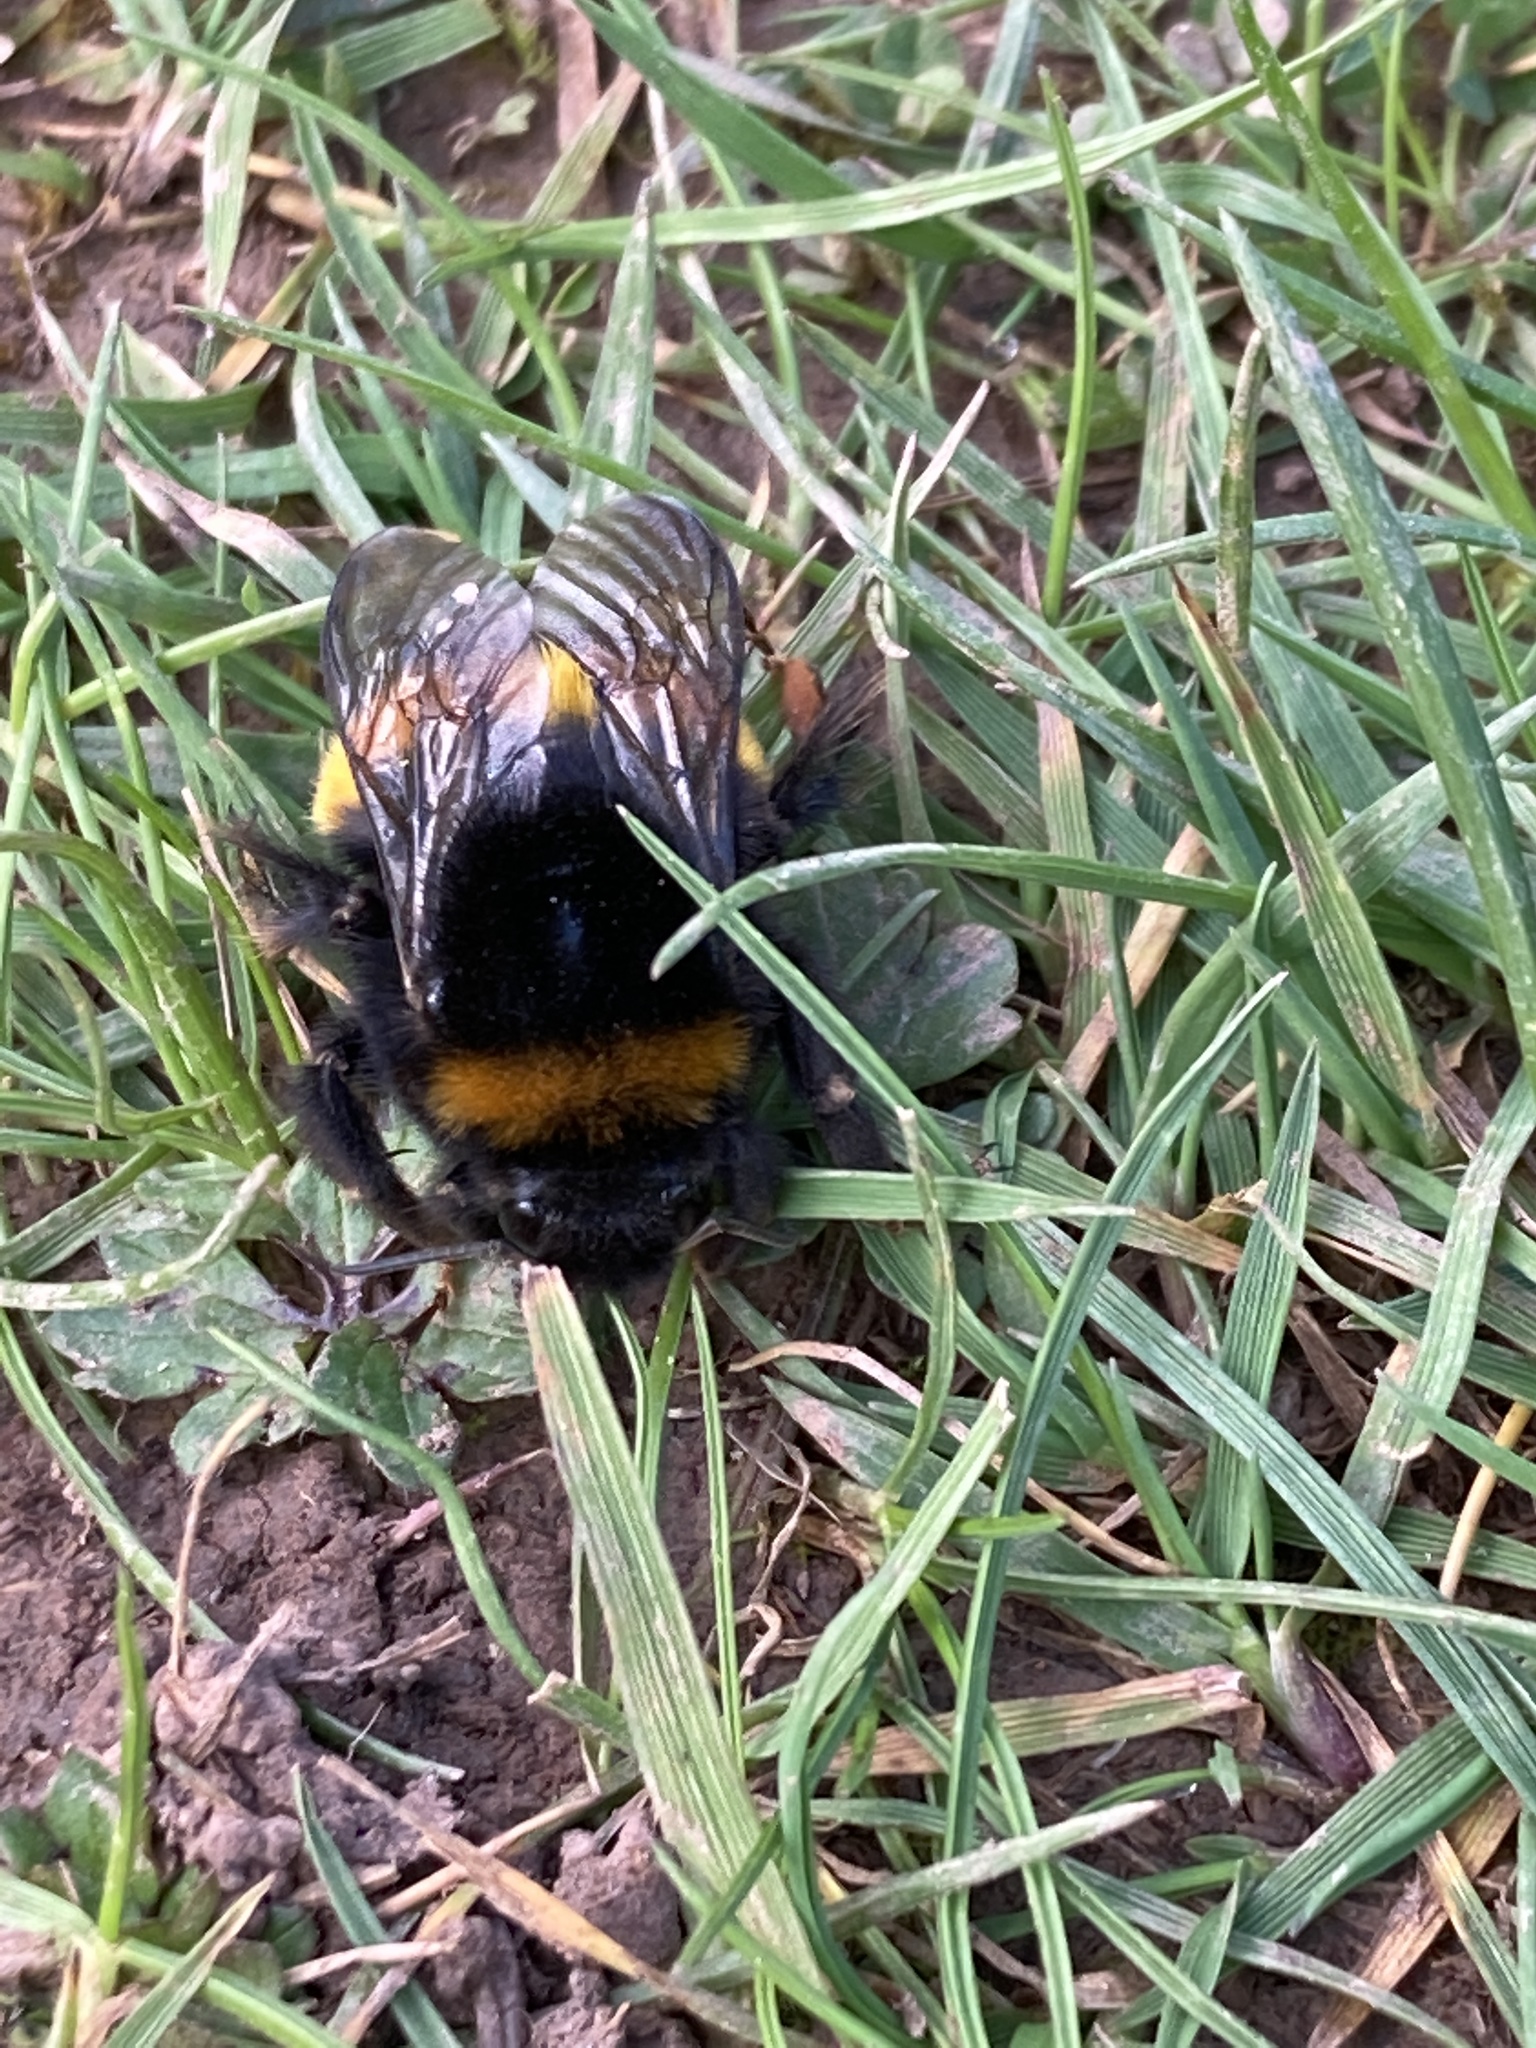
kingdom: Animalia
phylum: Arthropoda
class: Insecta
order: Hymenoptera
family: Apidae
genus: Bombus
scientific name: Bombus terrestris
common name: Buff-tailed bumblebee
